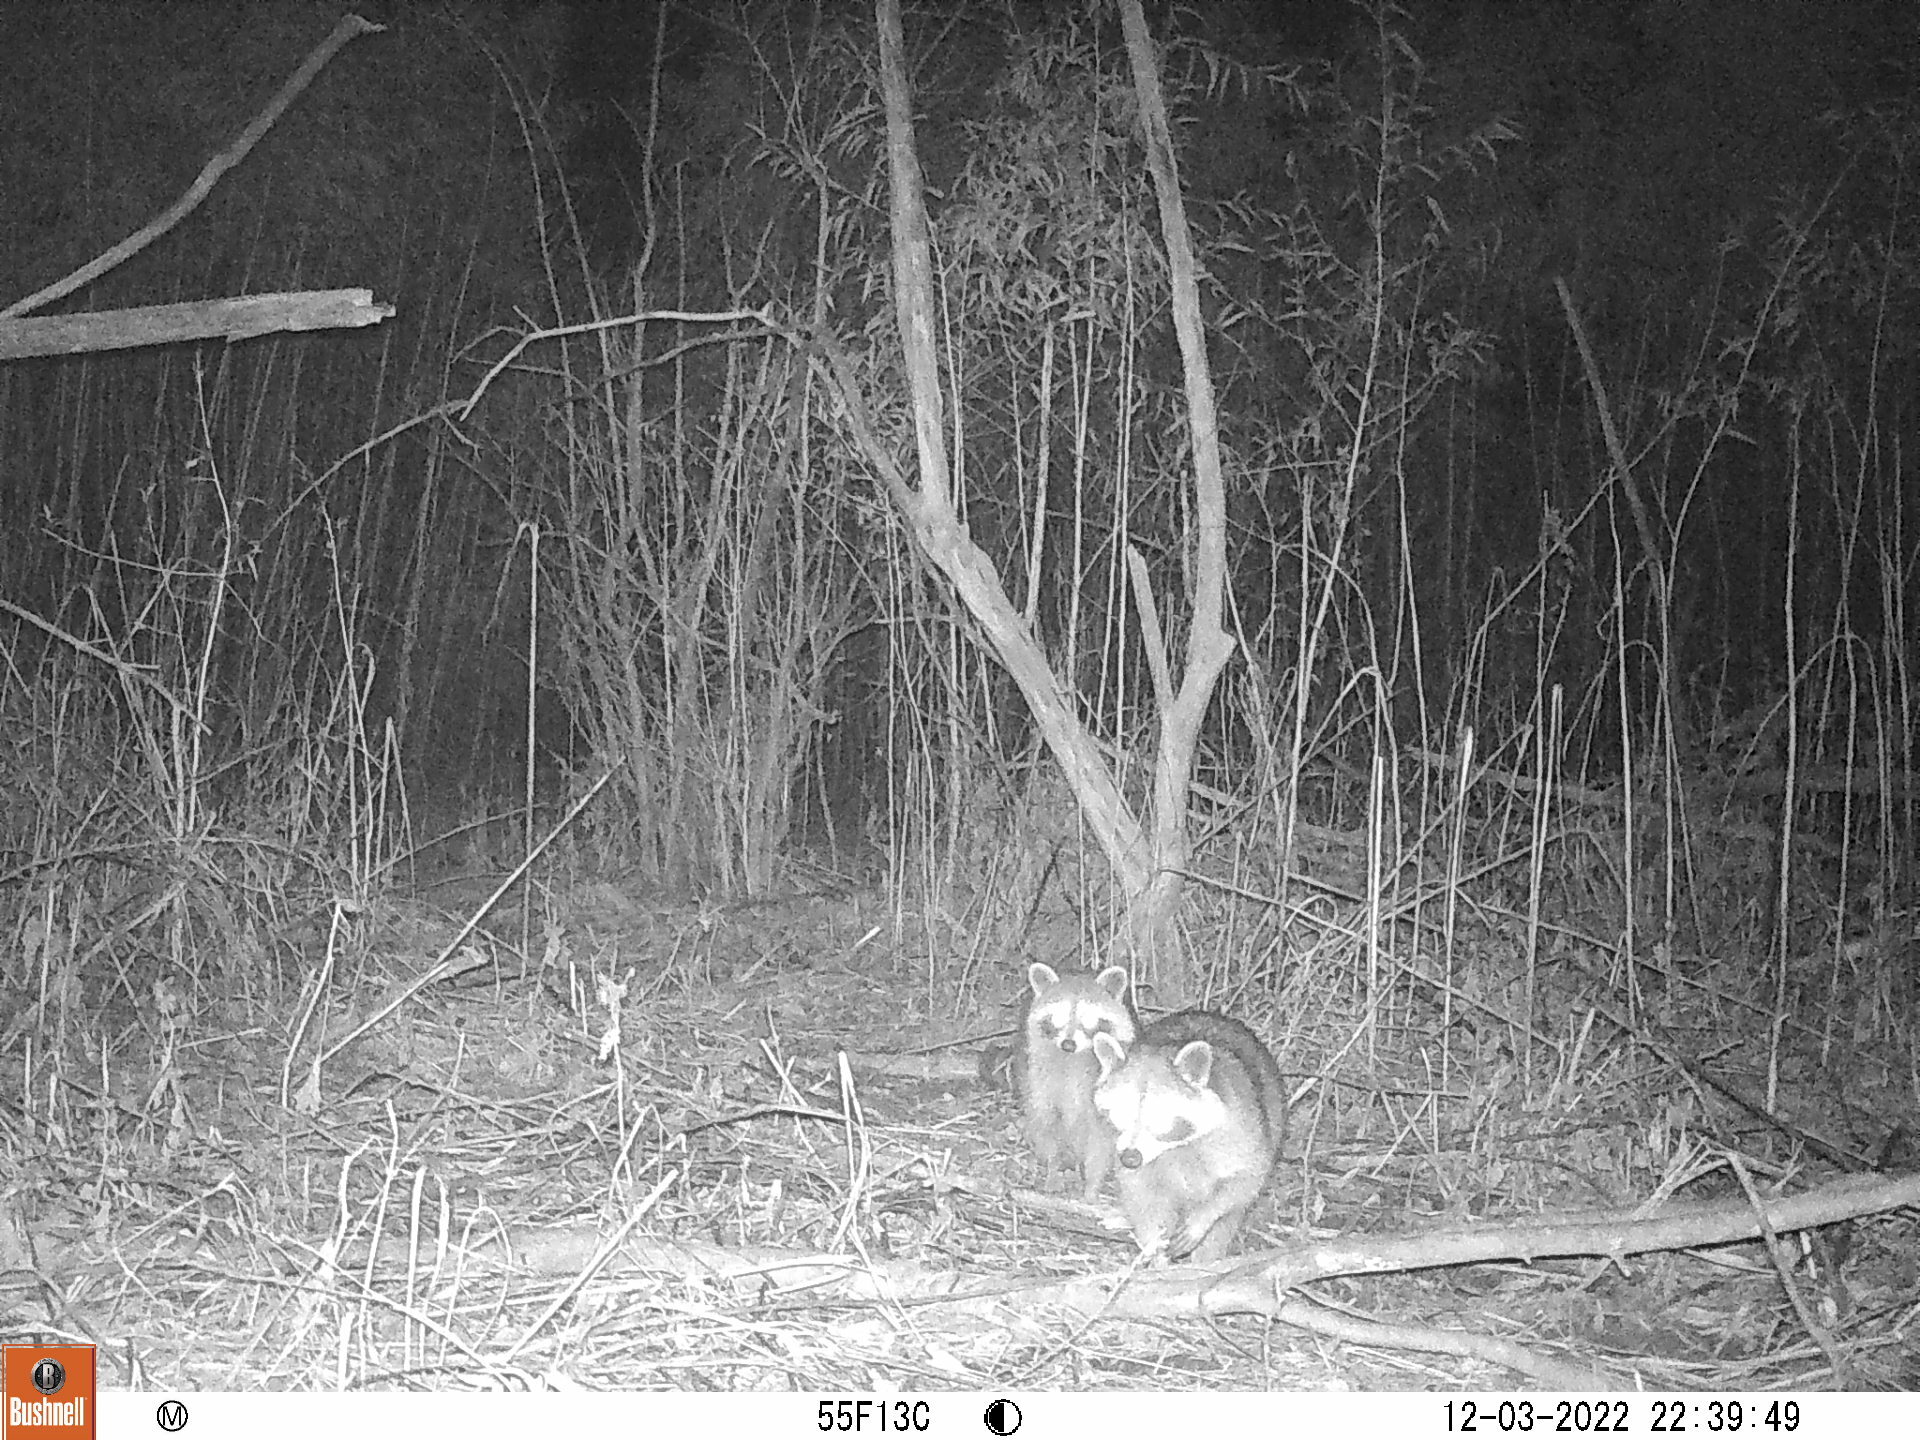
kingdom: Animalia
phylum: Chordata
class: Mammalia
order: Carnivora
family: Procyonidae
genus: Procyon
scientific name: Procyon lotor
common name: Raccoon
